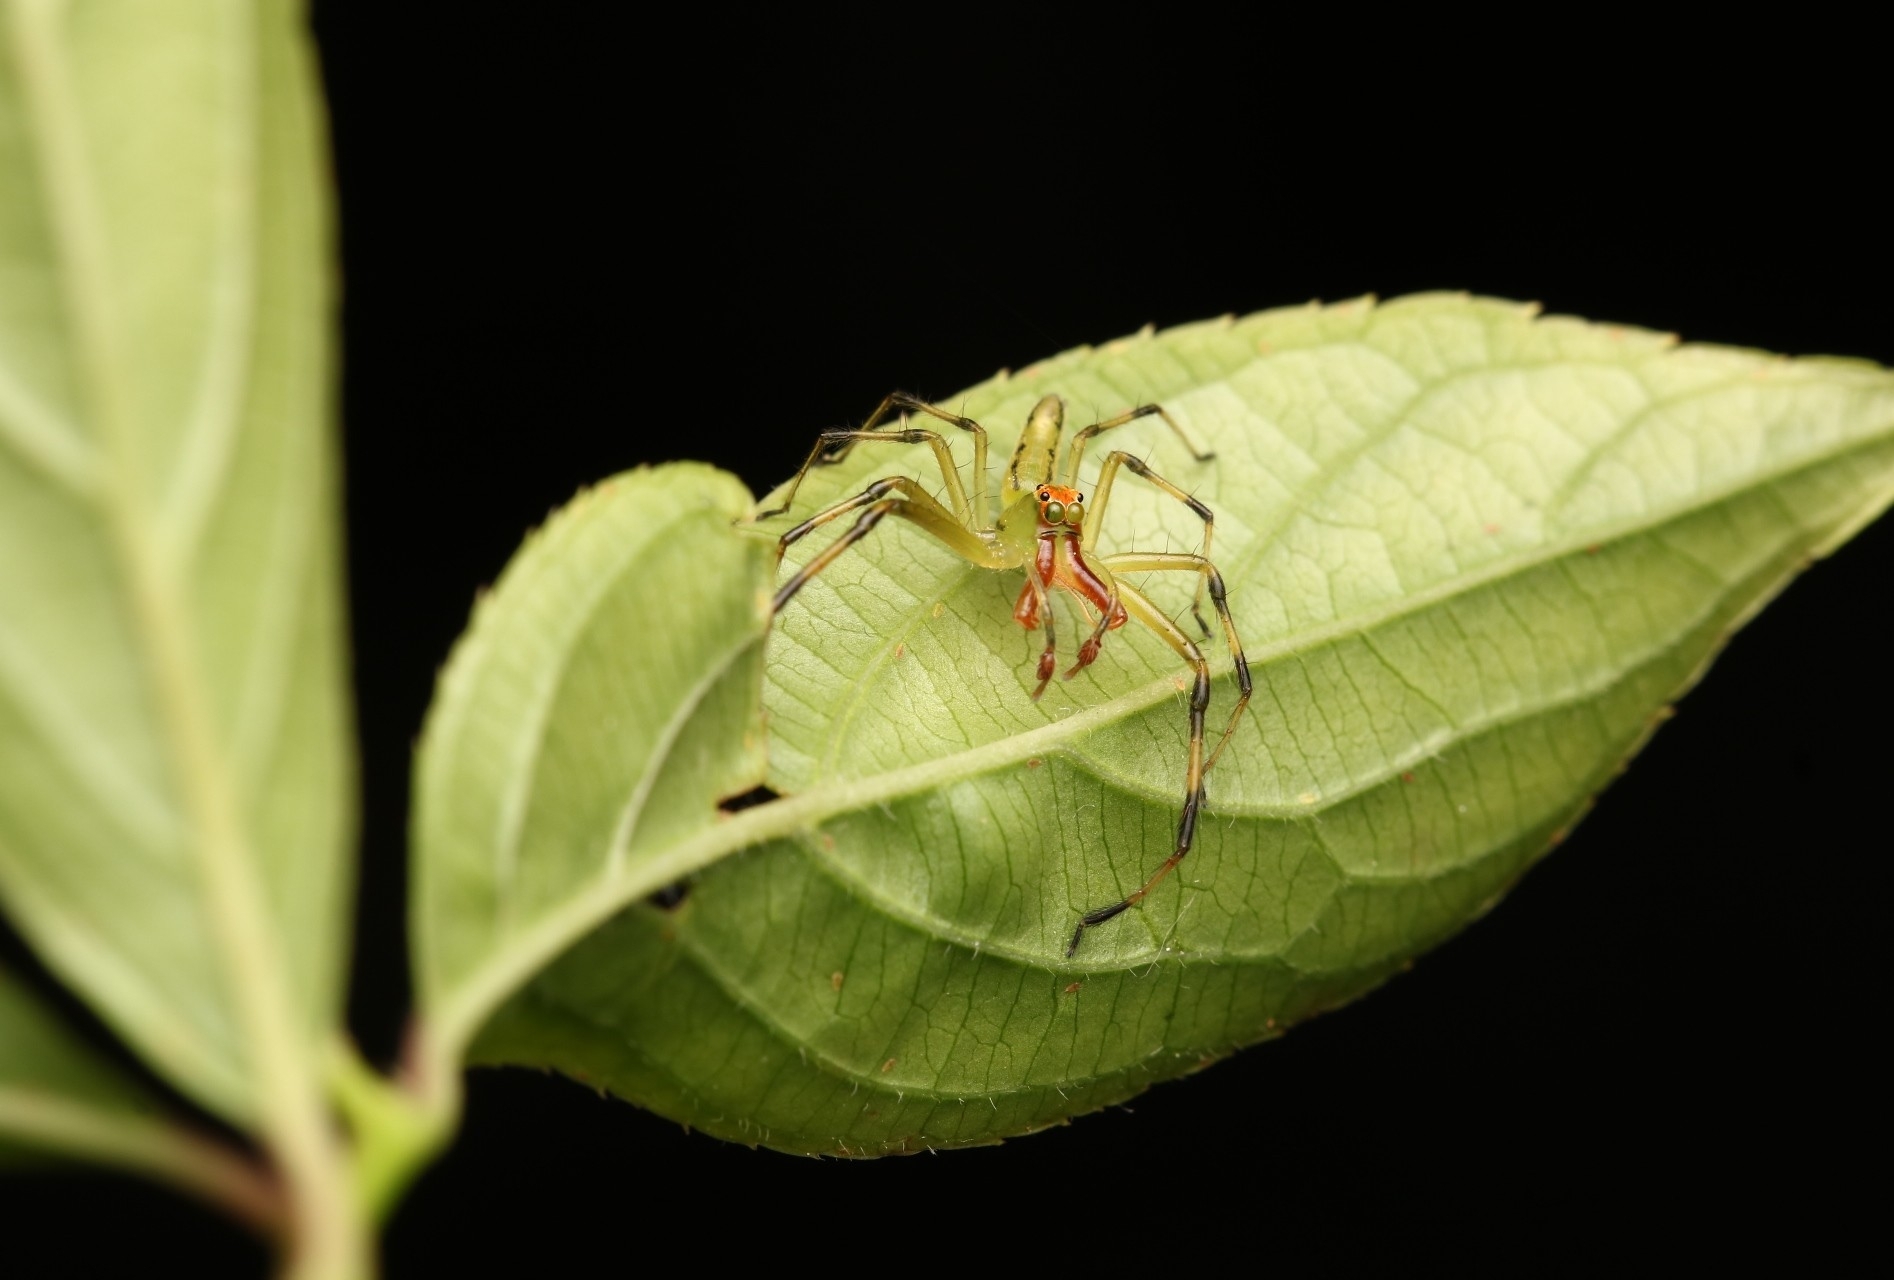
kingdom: Animalia
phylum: Arthropoda
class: Arachnida
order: Araneae
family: Salticidae
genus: Lyssomanes
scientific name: Lyssomanes viridis
